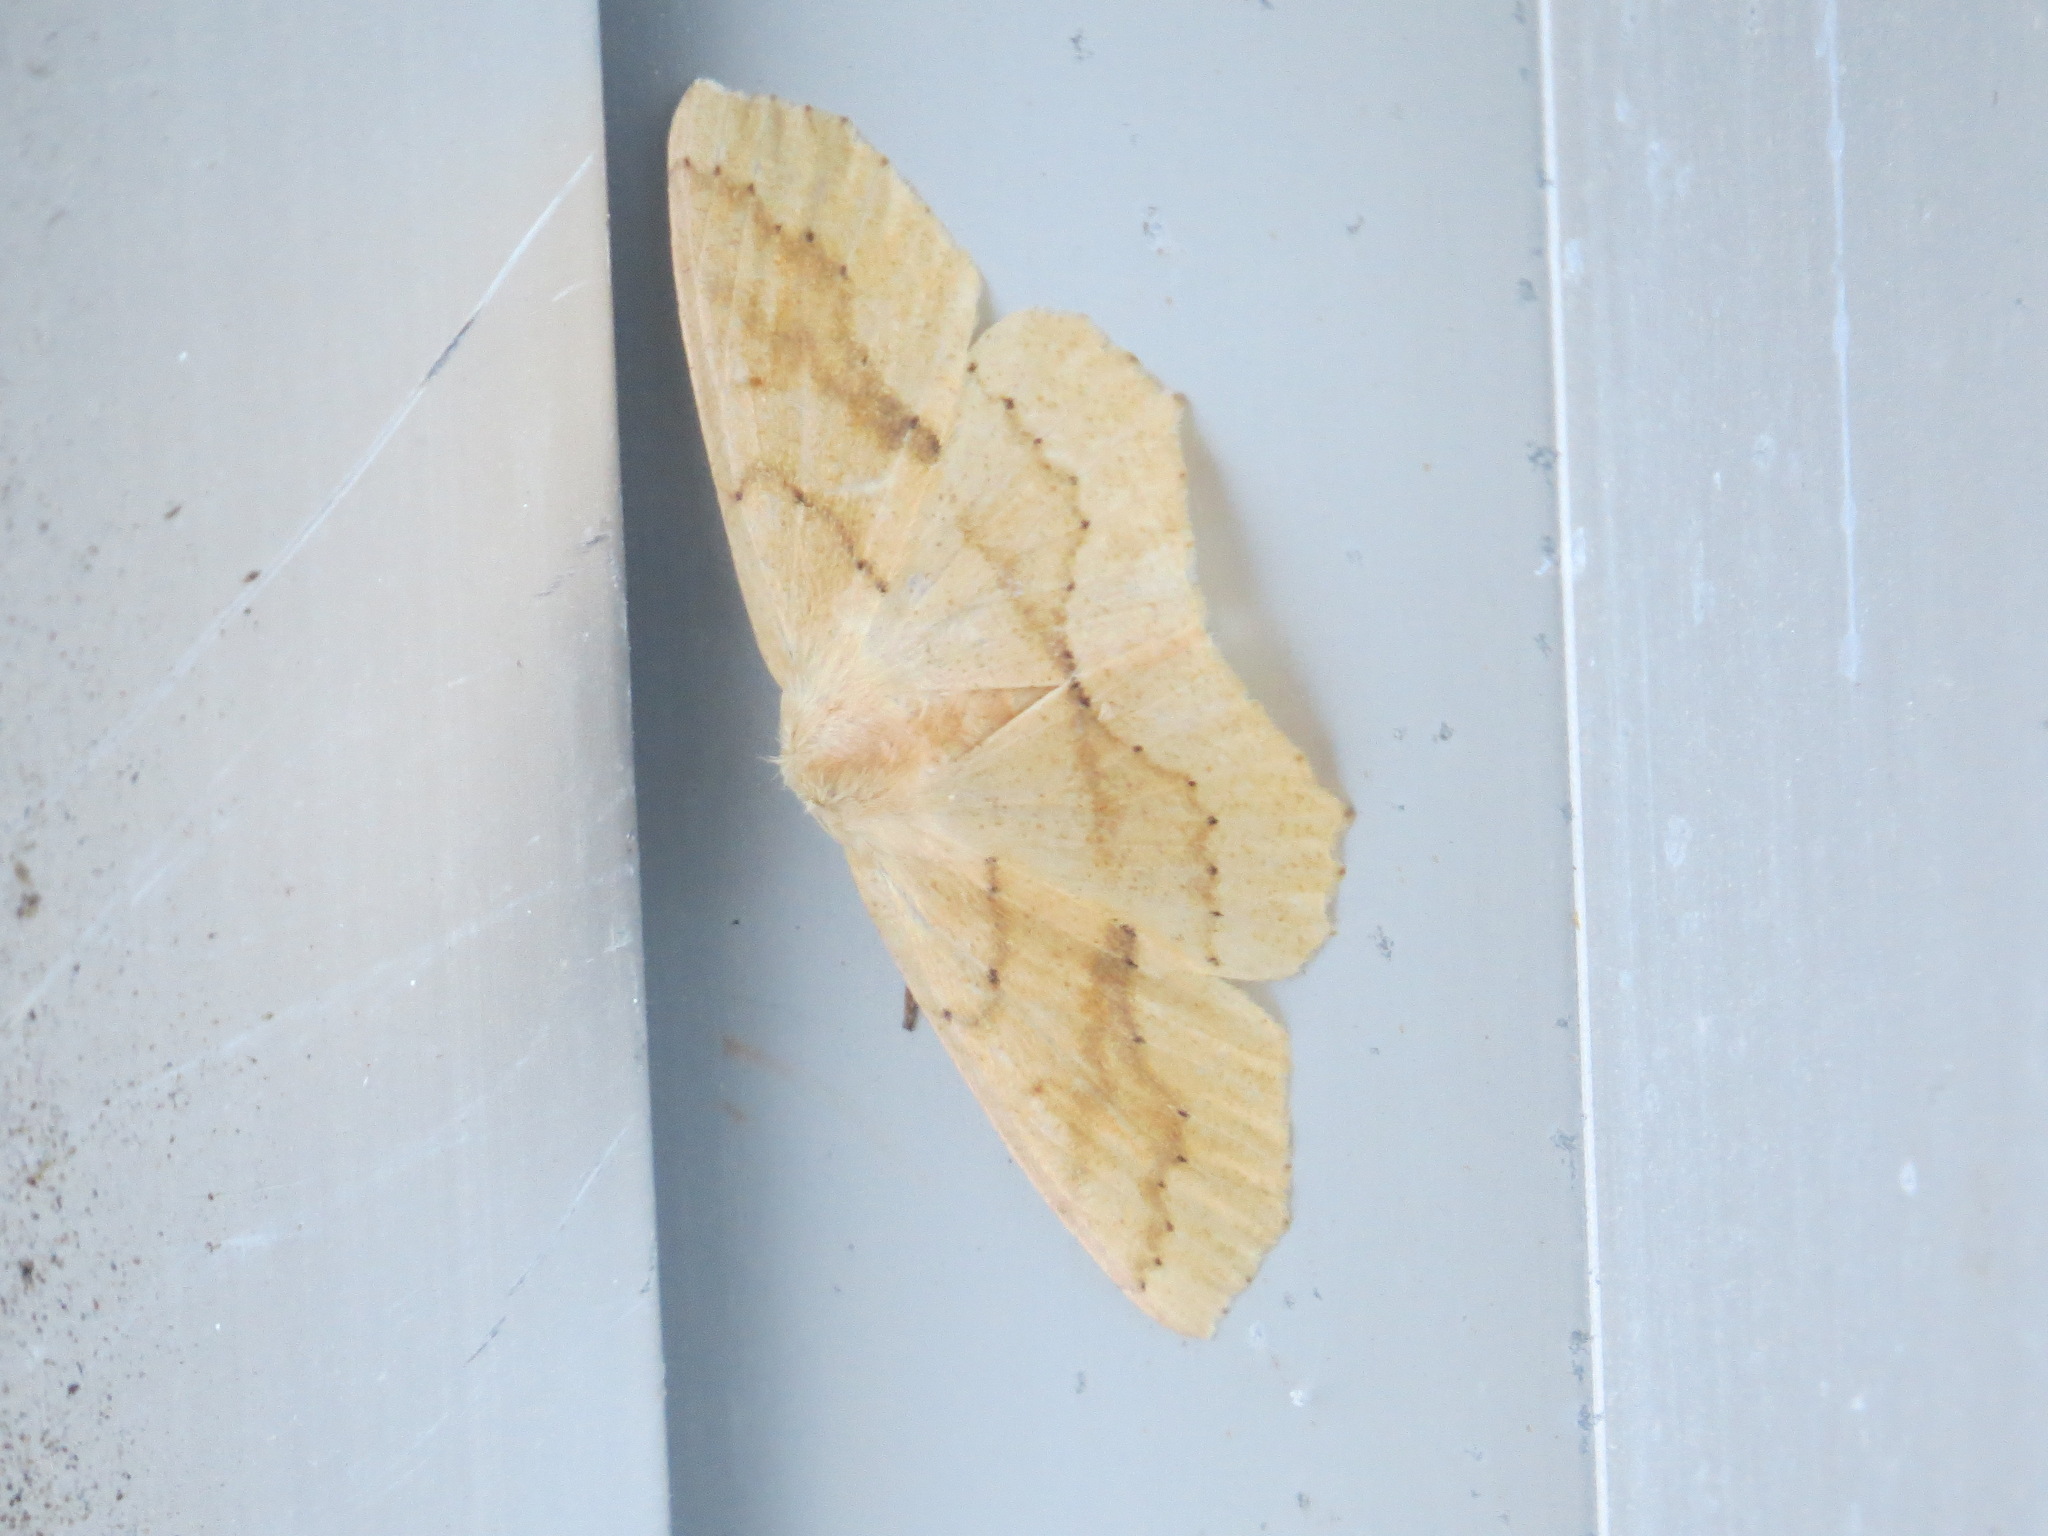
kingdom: Animalia
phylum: Arthropoda
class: Insecta
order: Lepidoptera
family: Geometridae
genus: Sabulodes
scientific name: Sabulodes aegrotata
